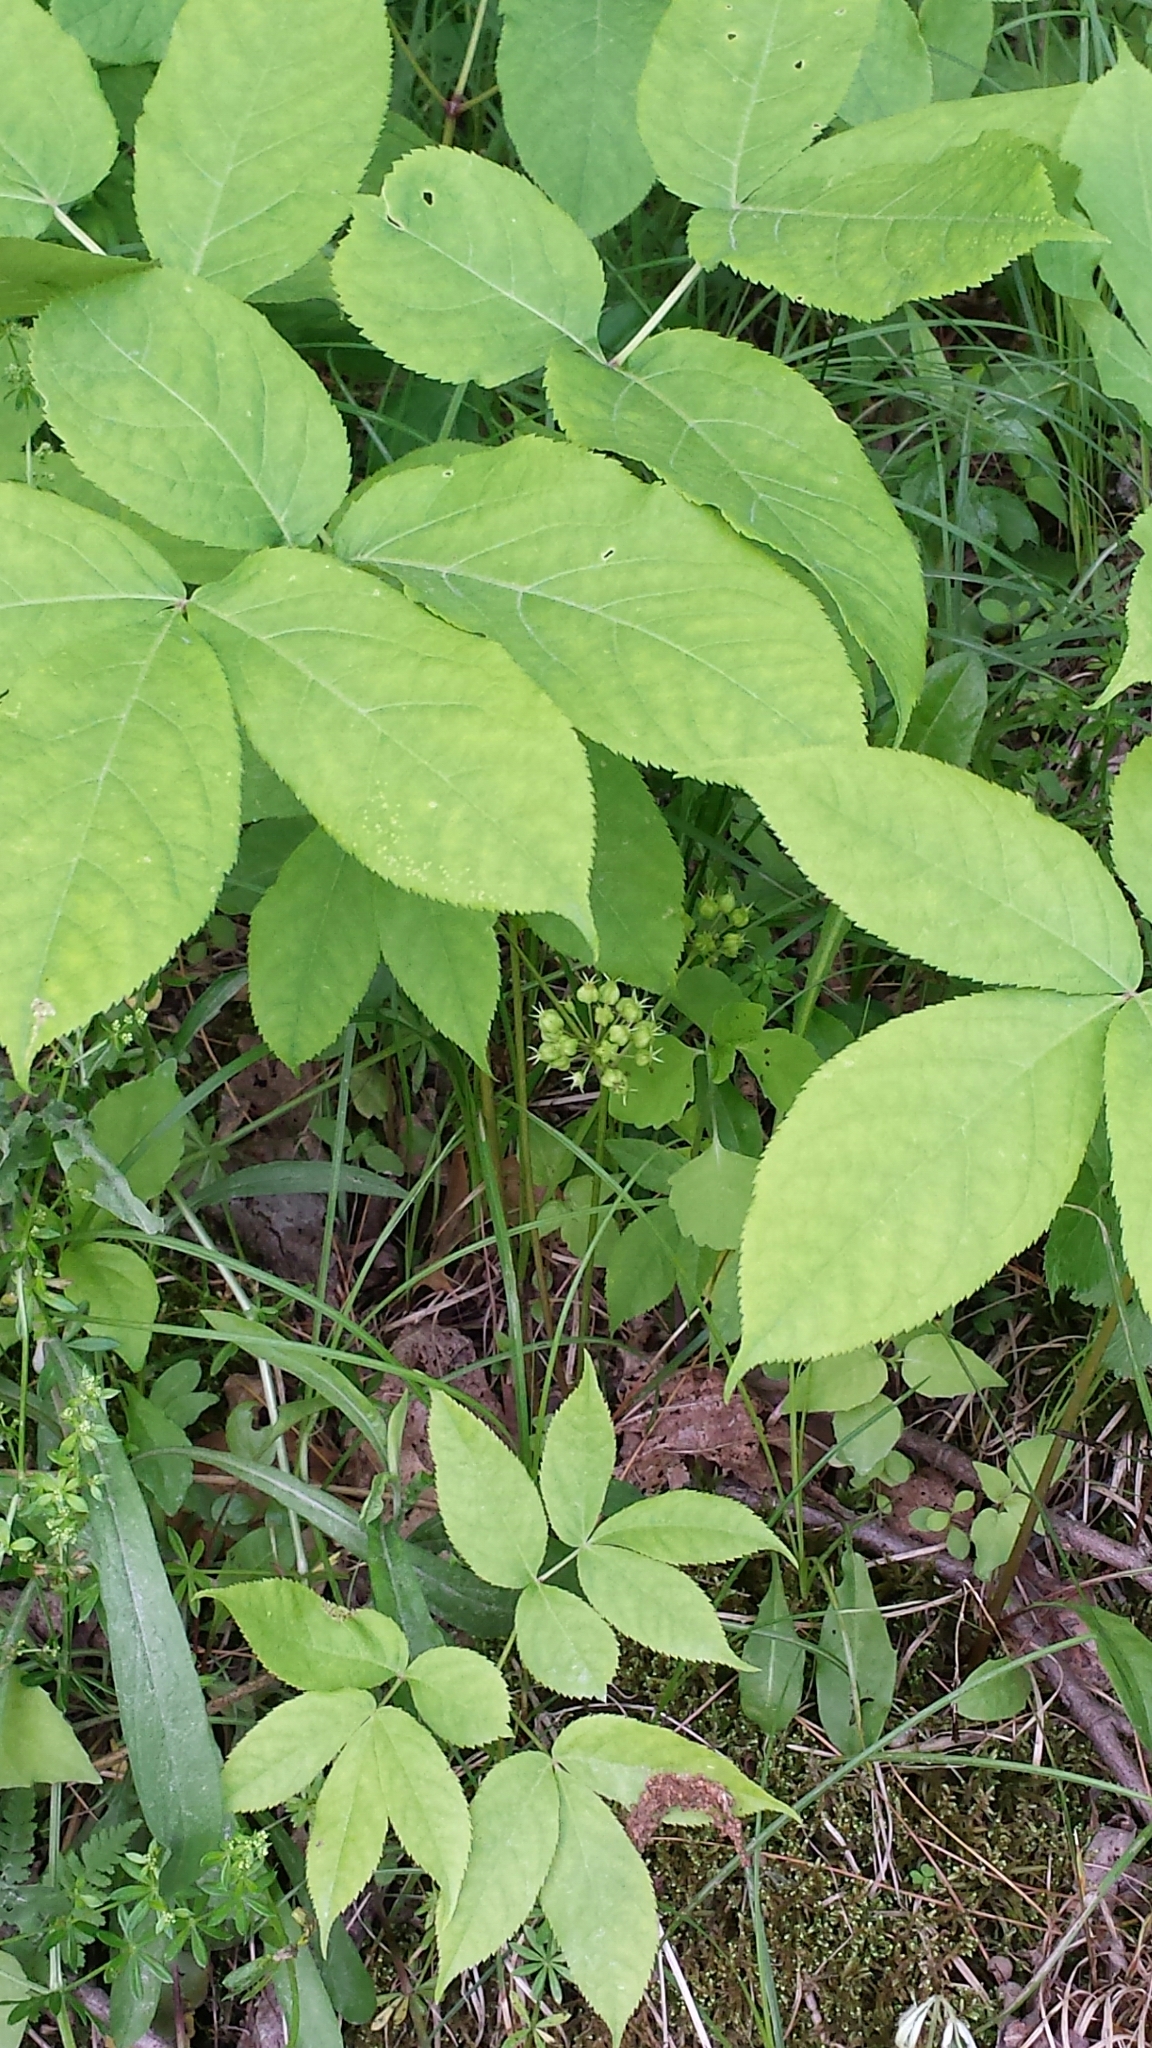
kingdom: Plantae
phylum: Tracheophyta
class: Magnoliopsida
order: Apiales
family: Araliaceae
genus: Aralia
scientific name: Aralia nudicaulis
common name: Wild sarsaparilla
